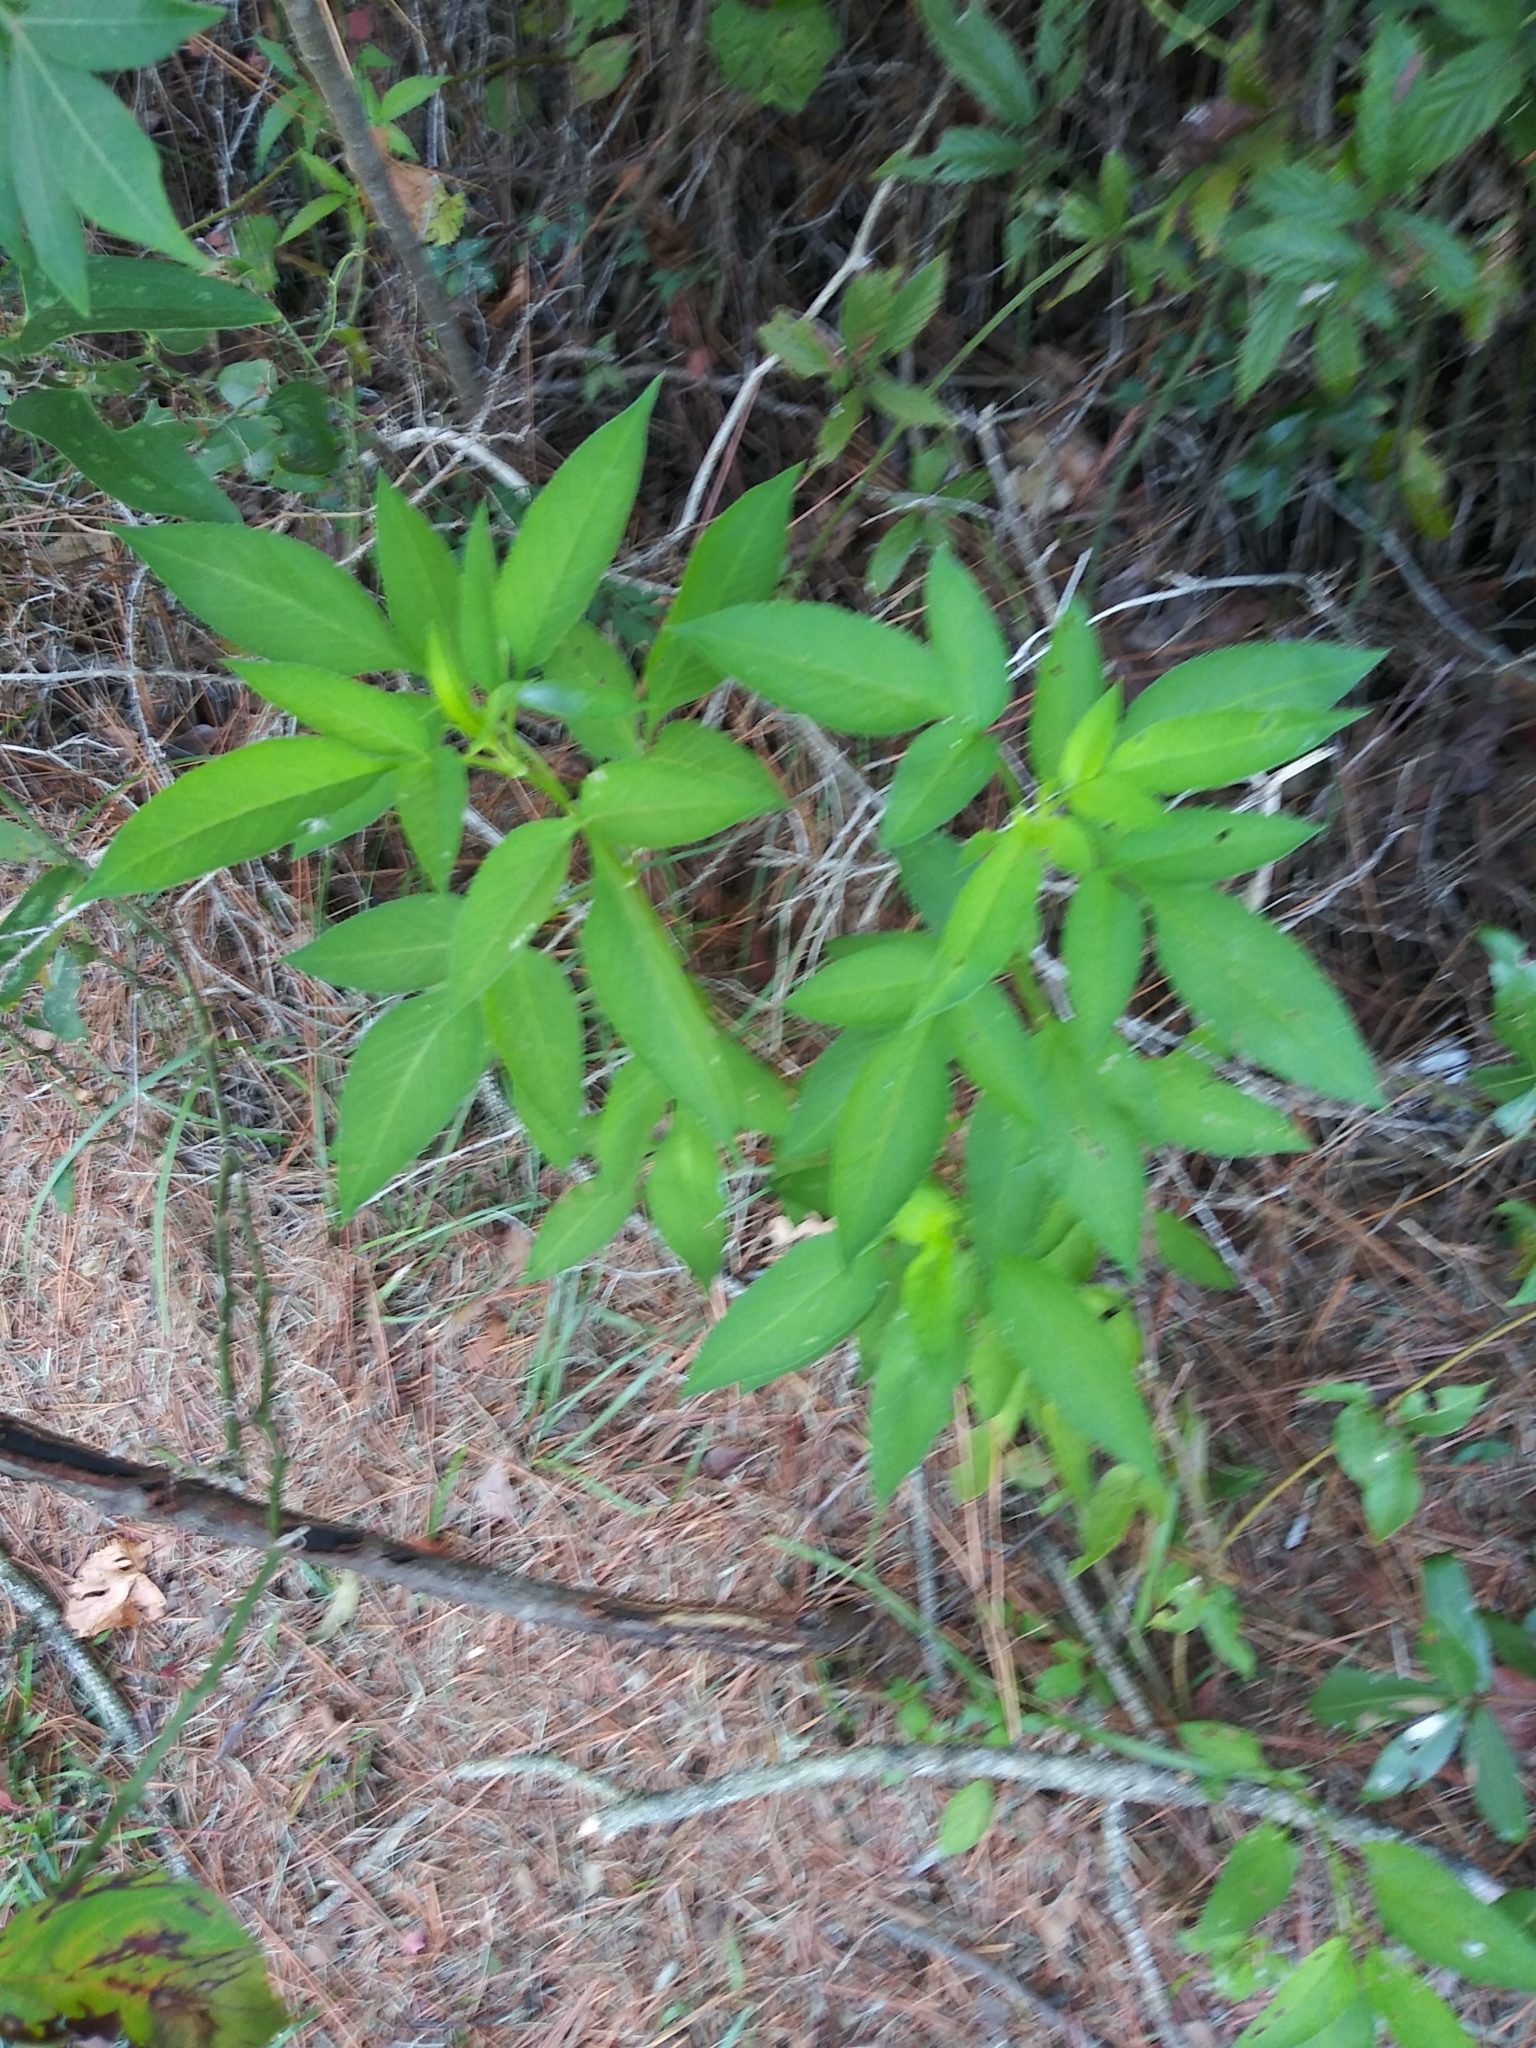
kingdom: Plantae
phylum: Tracheophyta
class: Magnoliopsida
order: Asterales
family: Asteraceae
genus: Bidens
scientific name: Bidens alba
